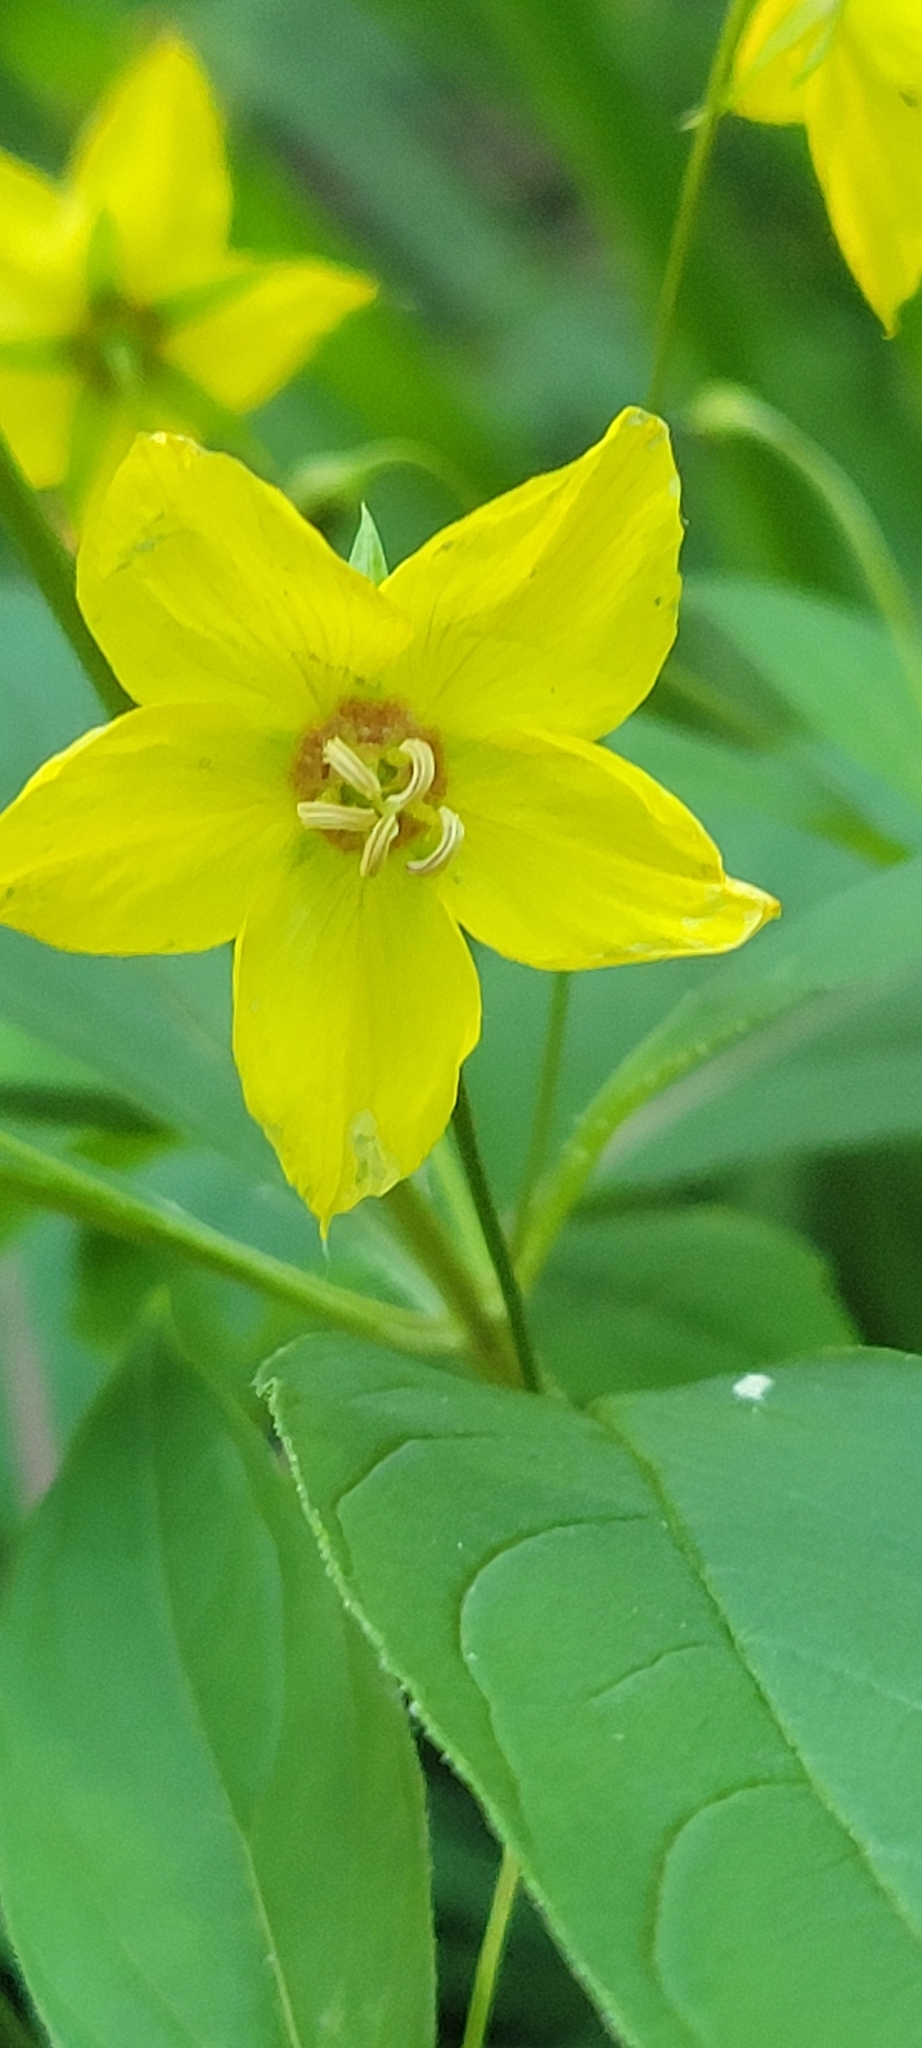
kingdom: Plantae
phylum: Tracheophyta
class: Magnoliopsida
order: Ericales
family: Primulaceae
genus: Lysimachia
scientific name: Lysimachia ciliata
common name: Fringed loosestrife
